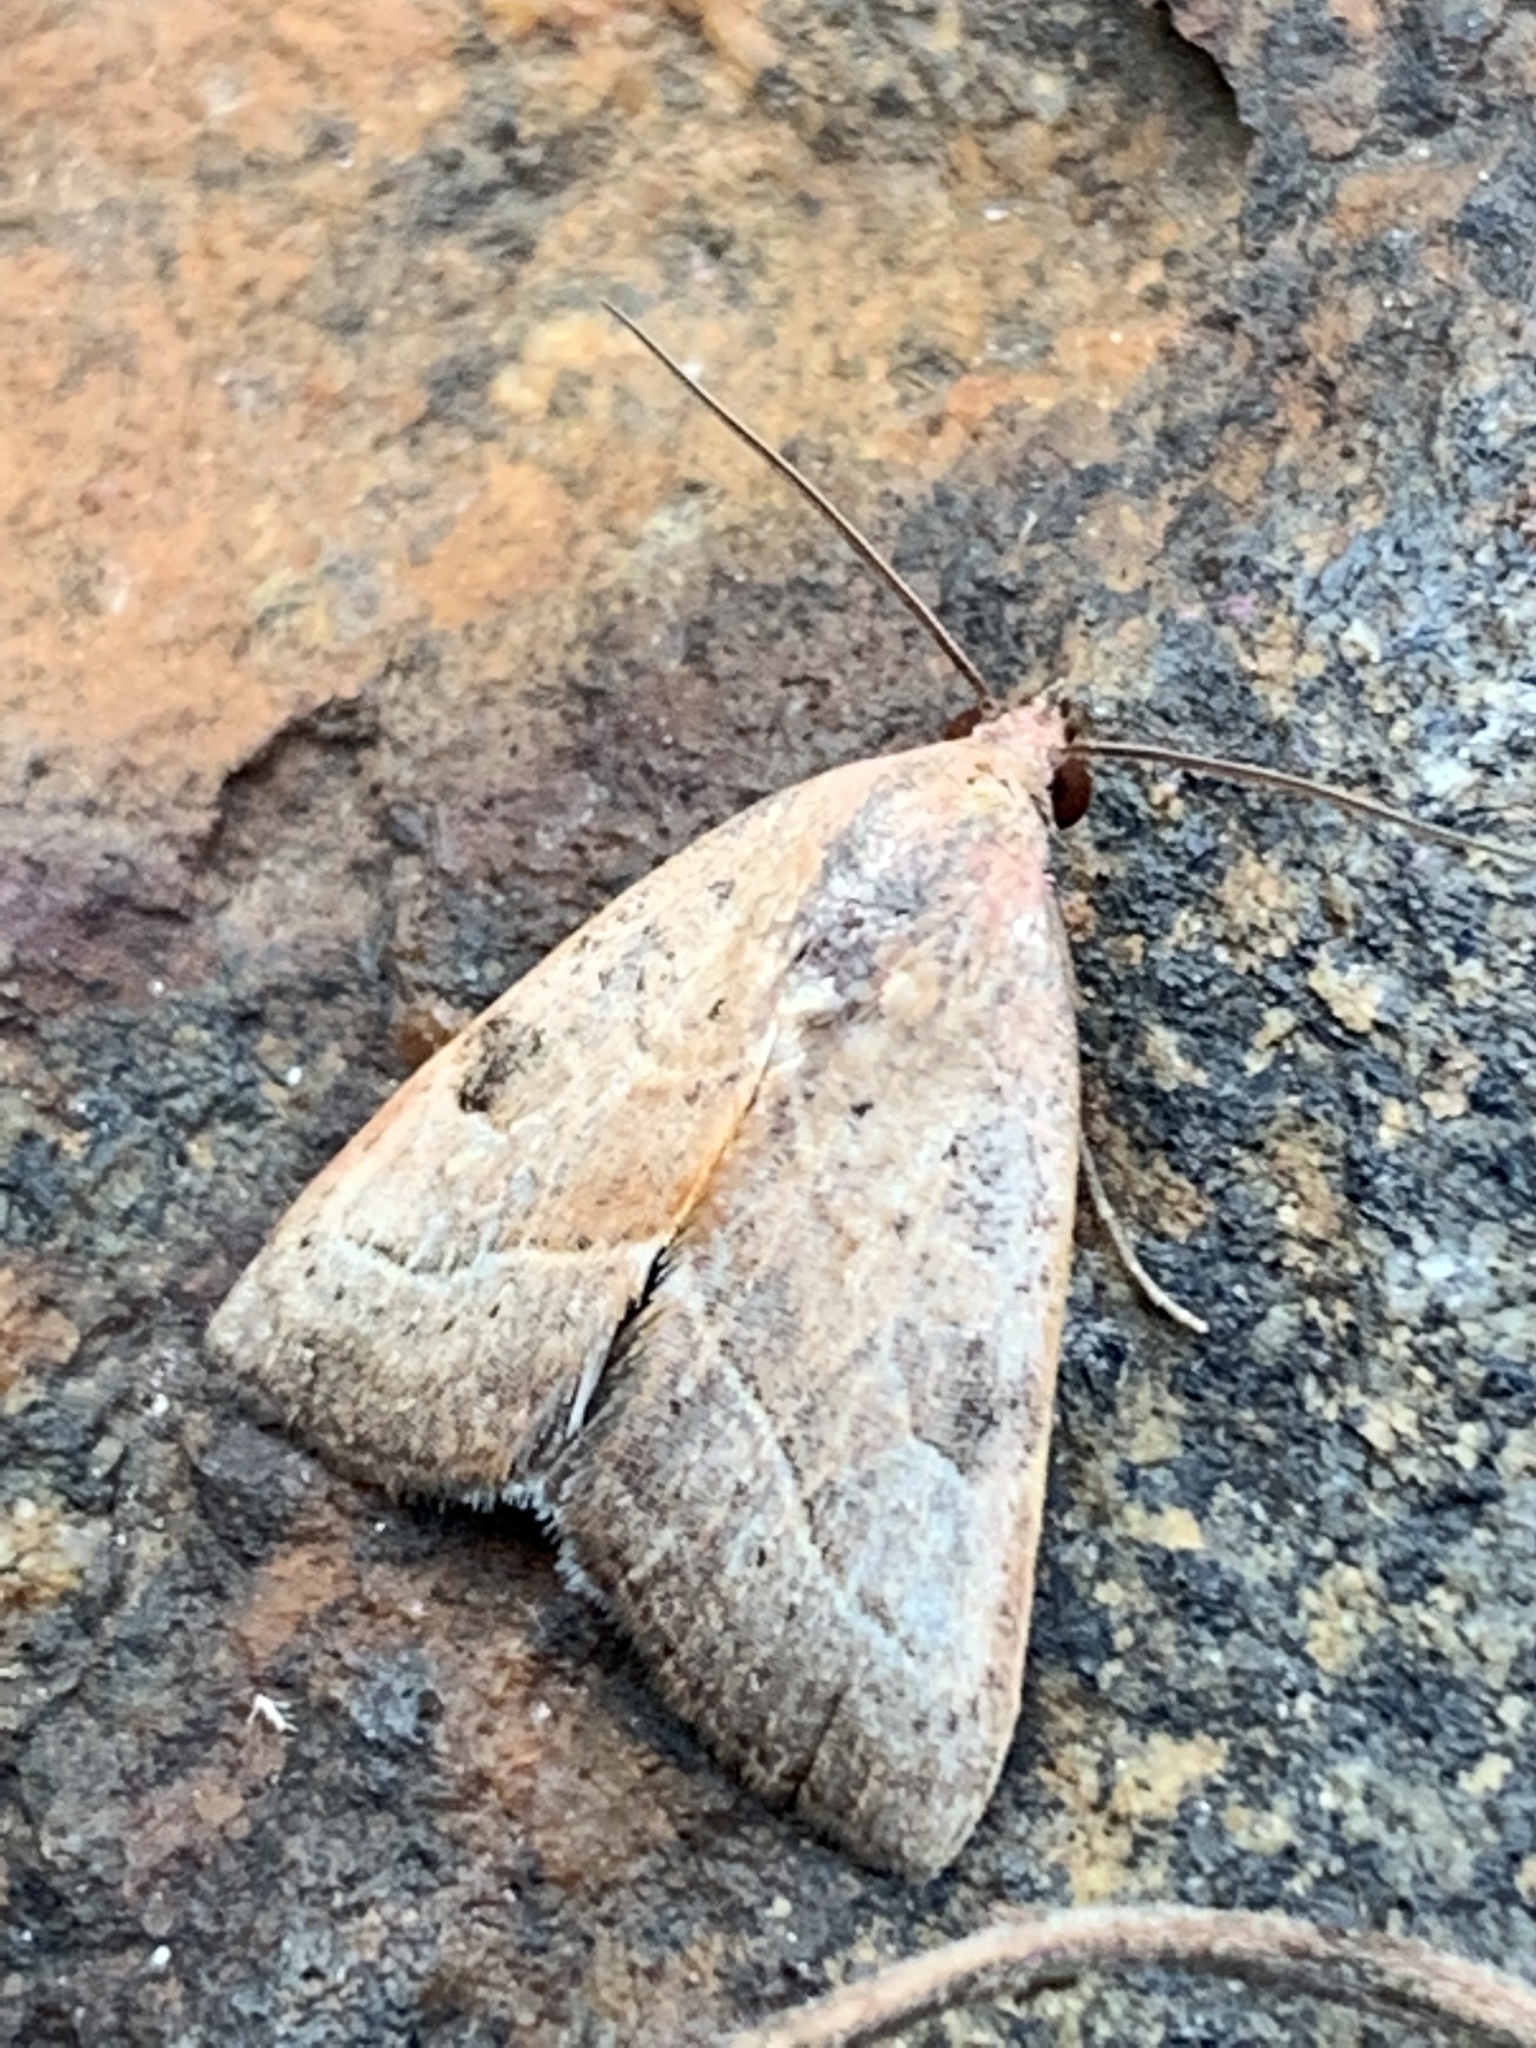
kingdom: Animalia
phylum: Arthropoda
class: Insecta
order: Lepidoptera
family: Noctuidae
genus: Galgula
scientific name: Galgula partita
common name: Wedgeling
